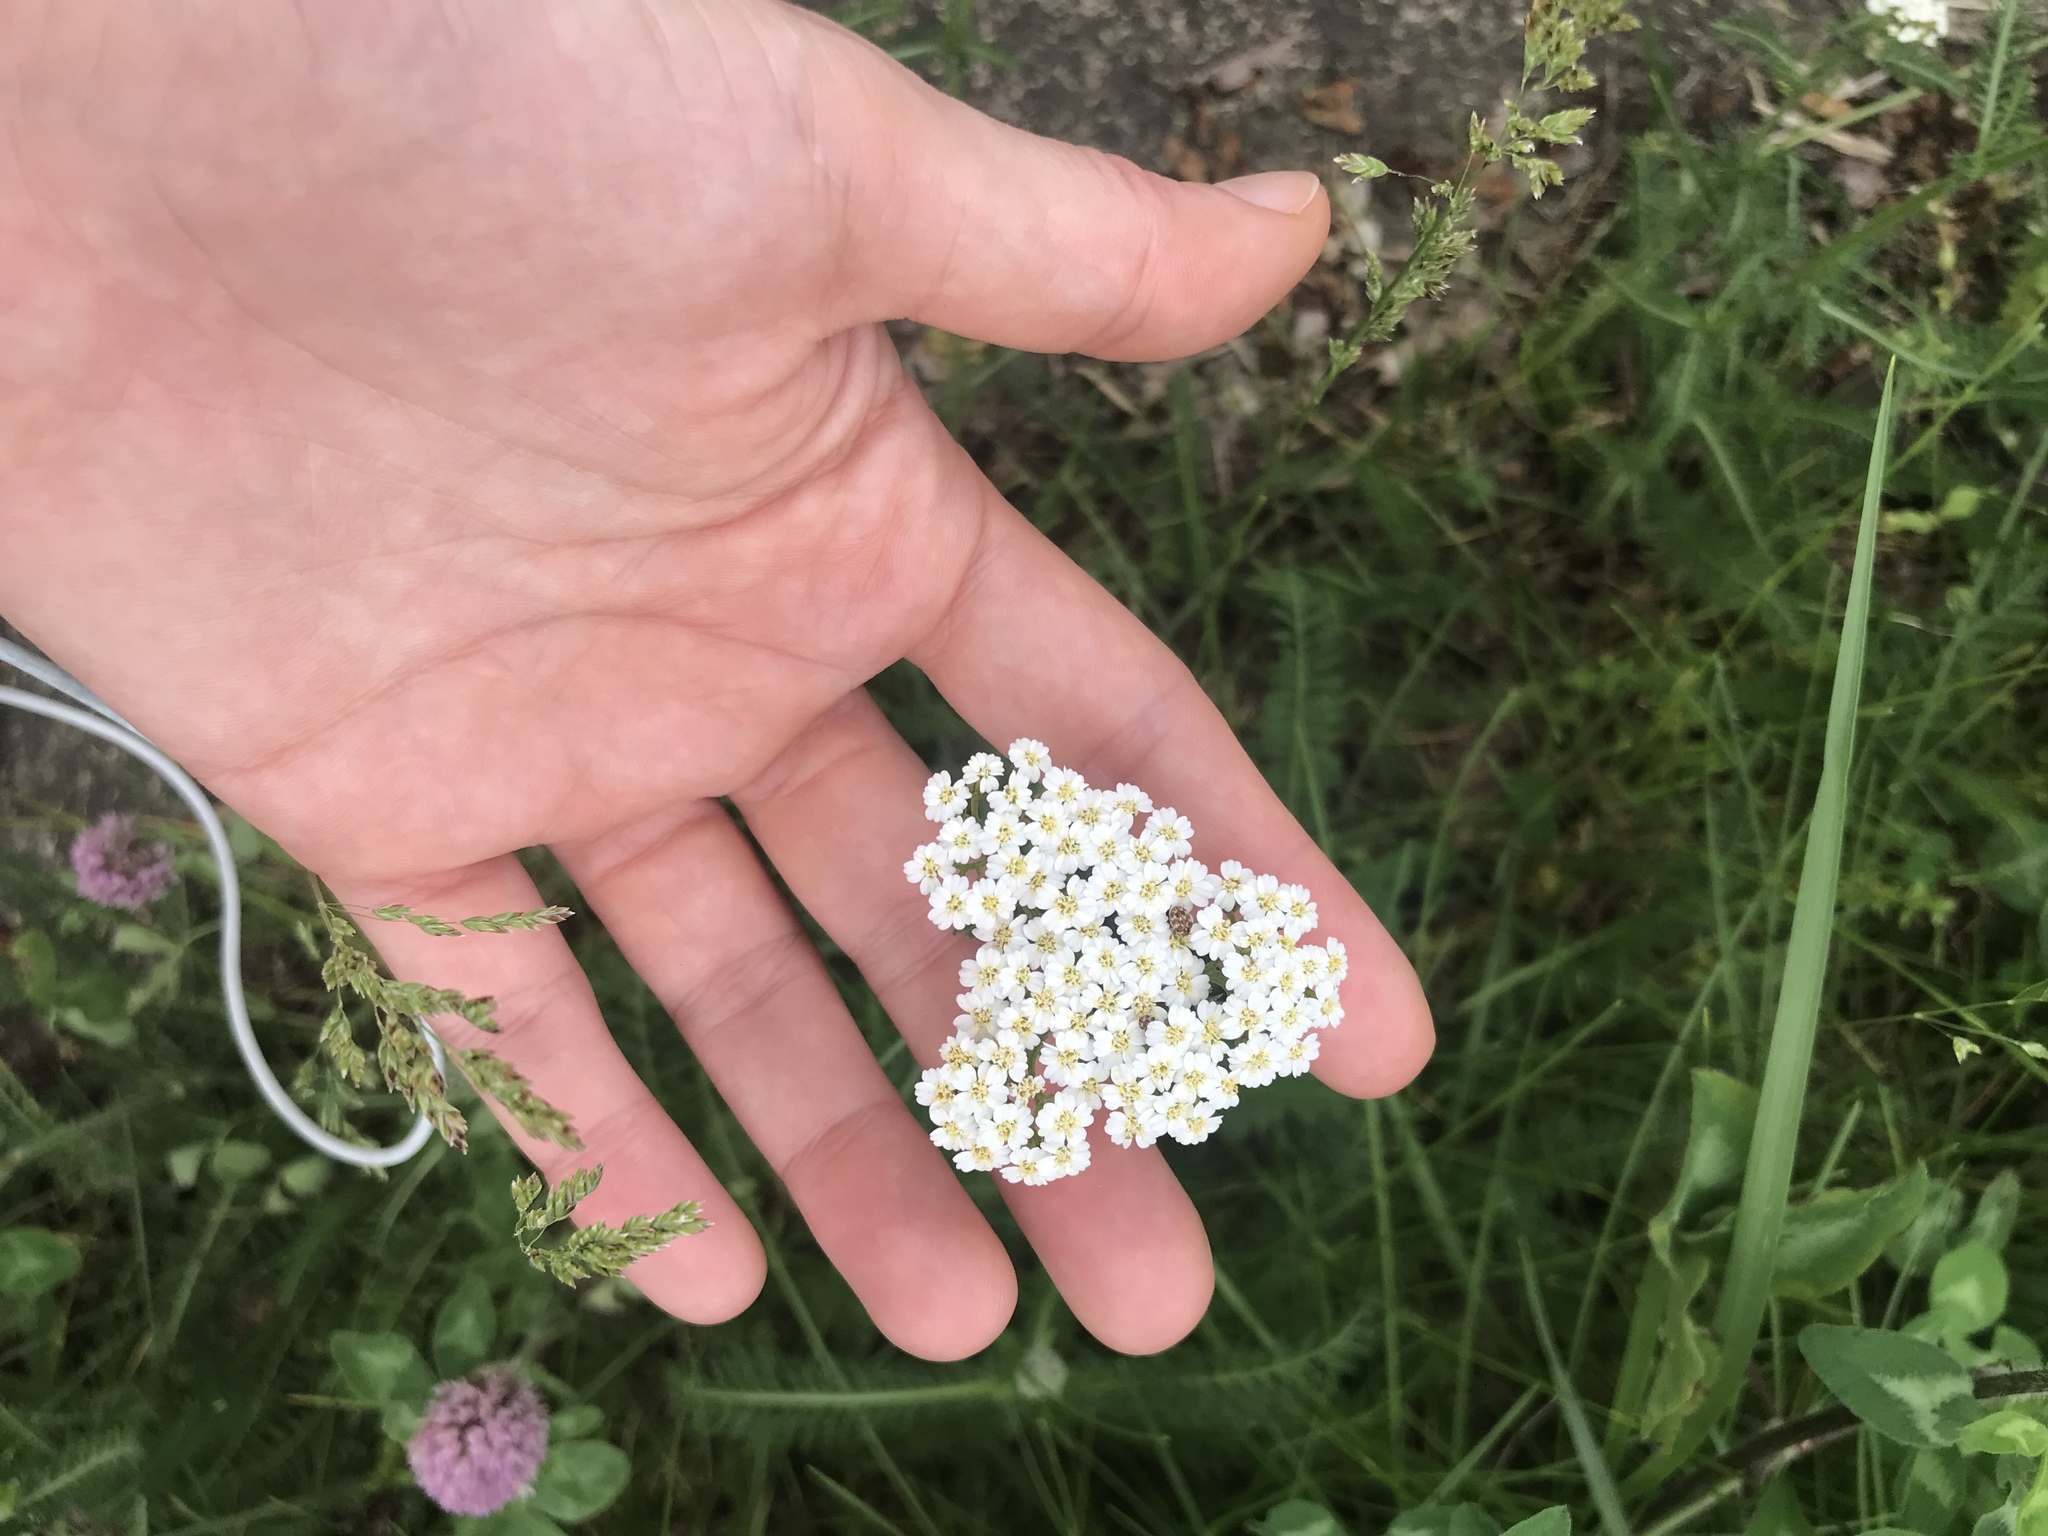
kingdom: Plantae
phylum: Tracheophyta
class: Magnoliopsida
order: Asterales
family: Asteraceae
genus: Achillea
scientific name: Achillea millefolium
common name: Yarrow
